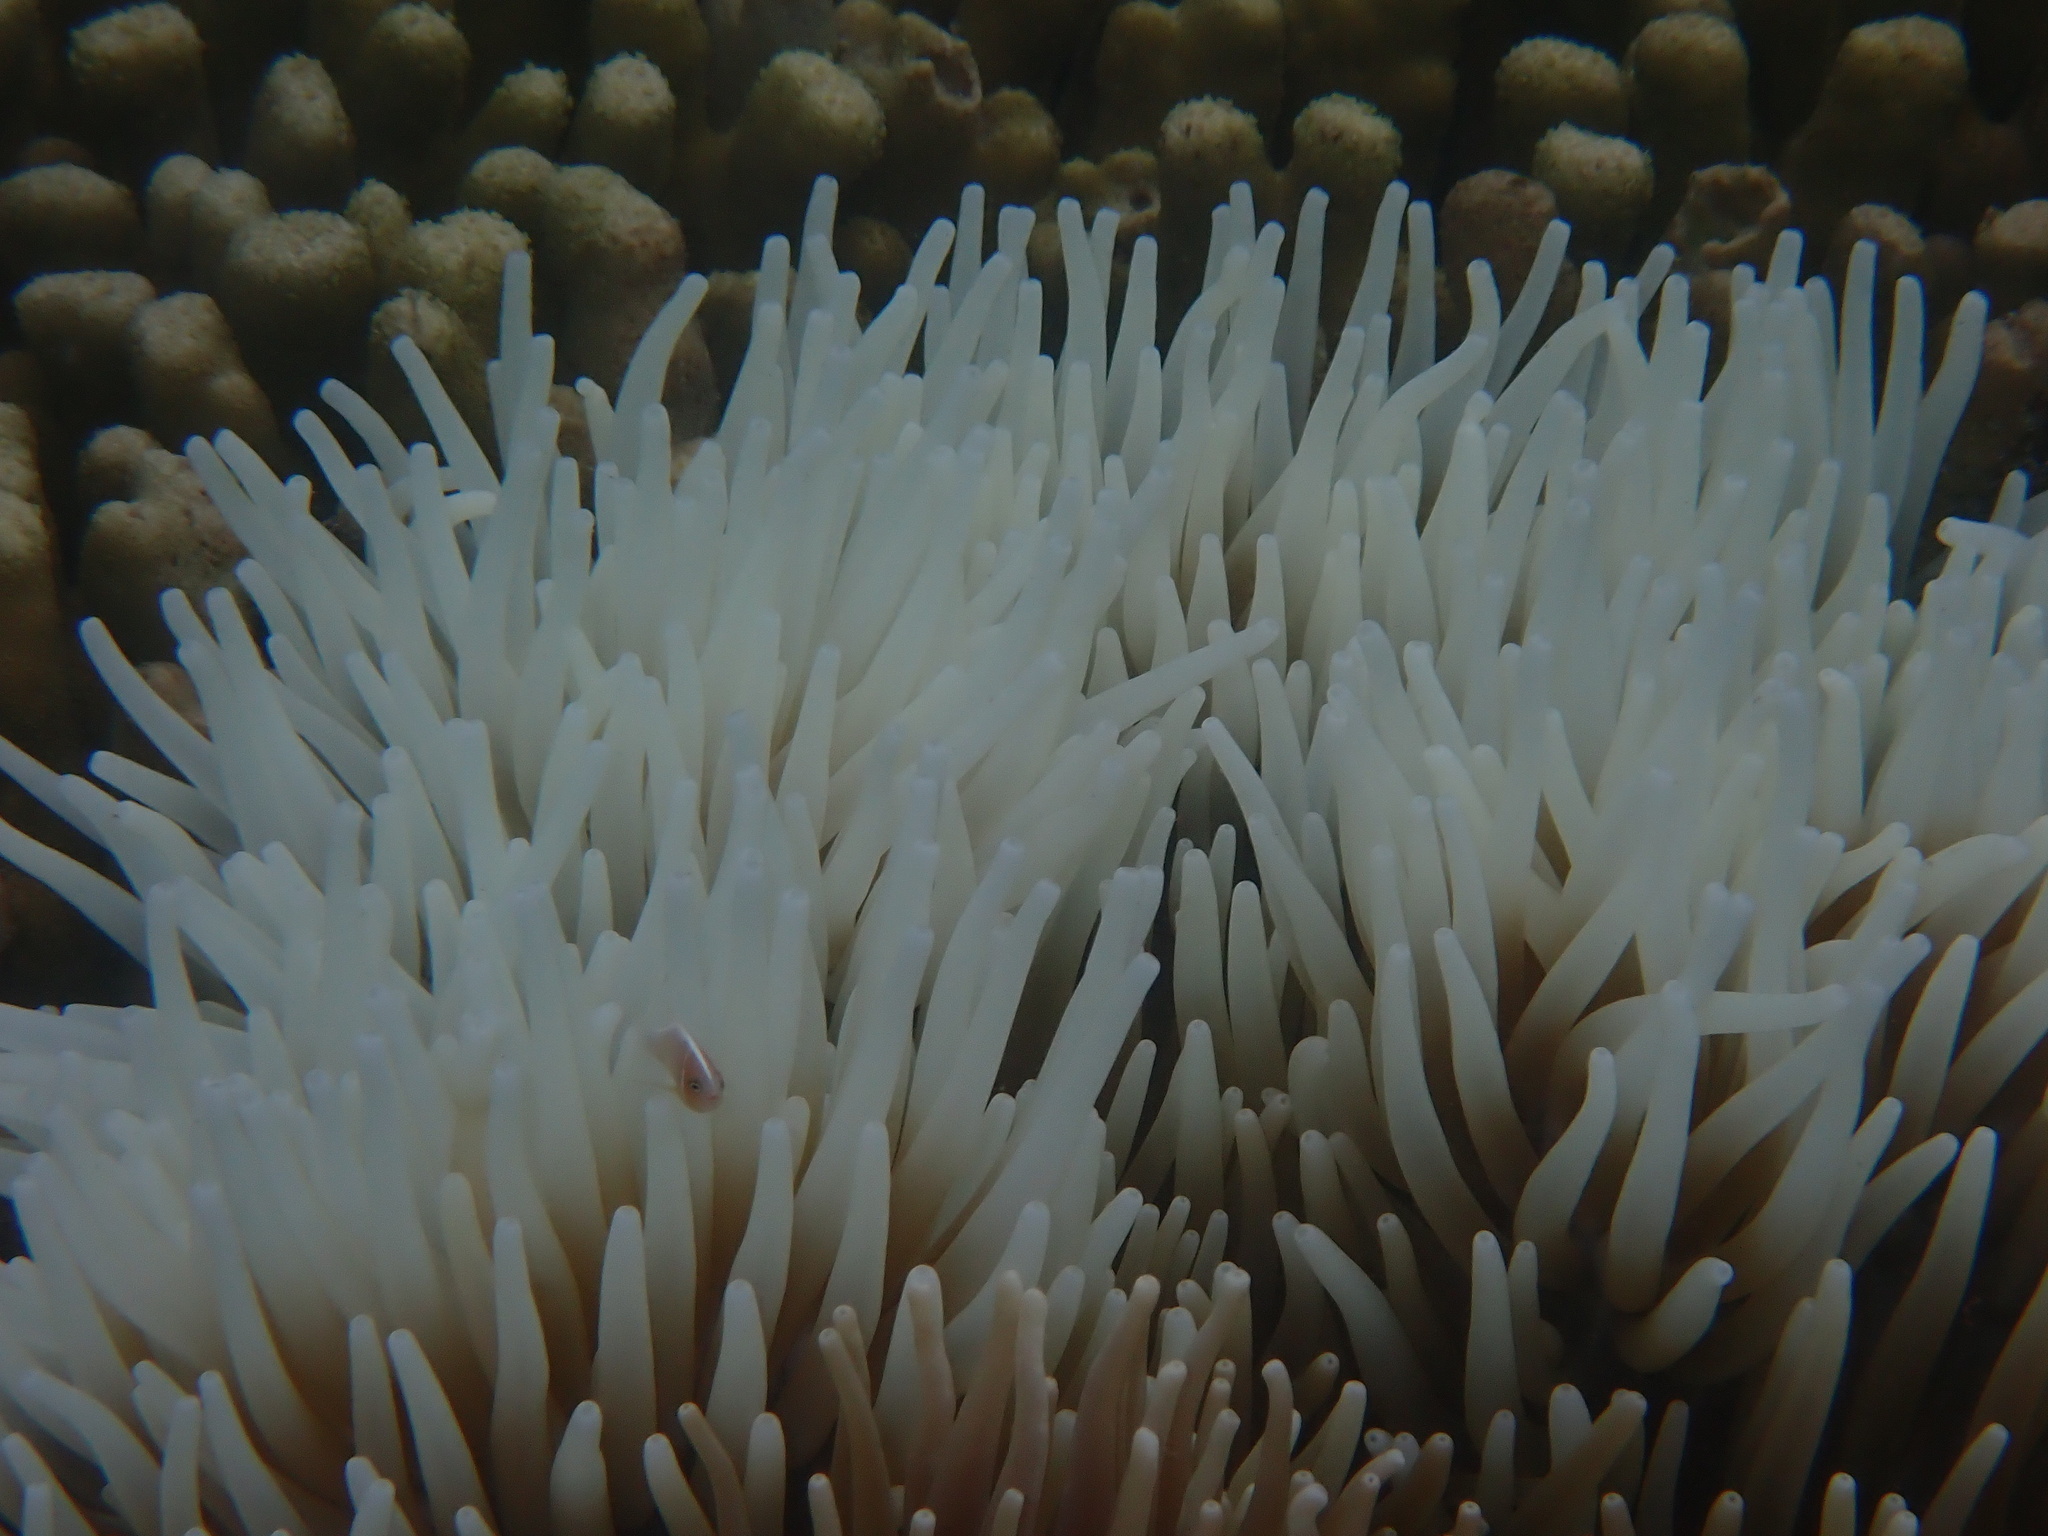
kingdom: Animalia
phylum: Cnidaria
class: Anthozoa
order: Actiniaria
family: Stichodactylidae
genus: Radianthus
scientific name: Radianthus crispa
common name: Leather anemone
